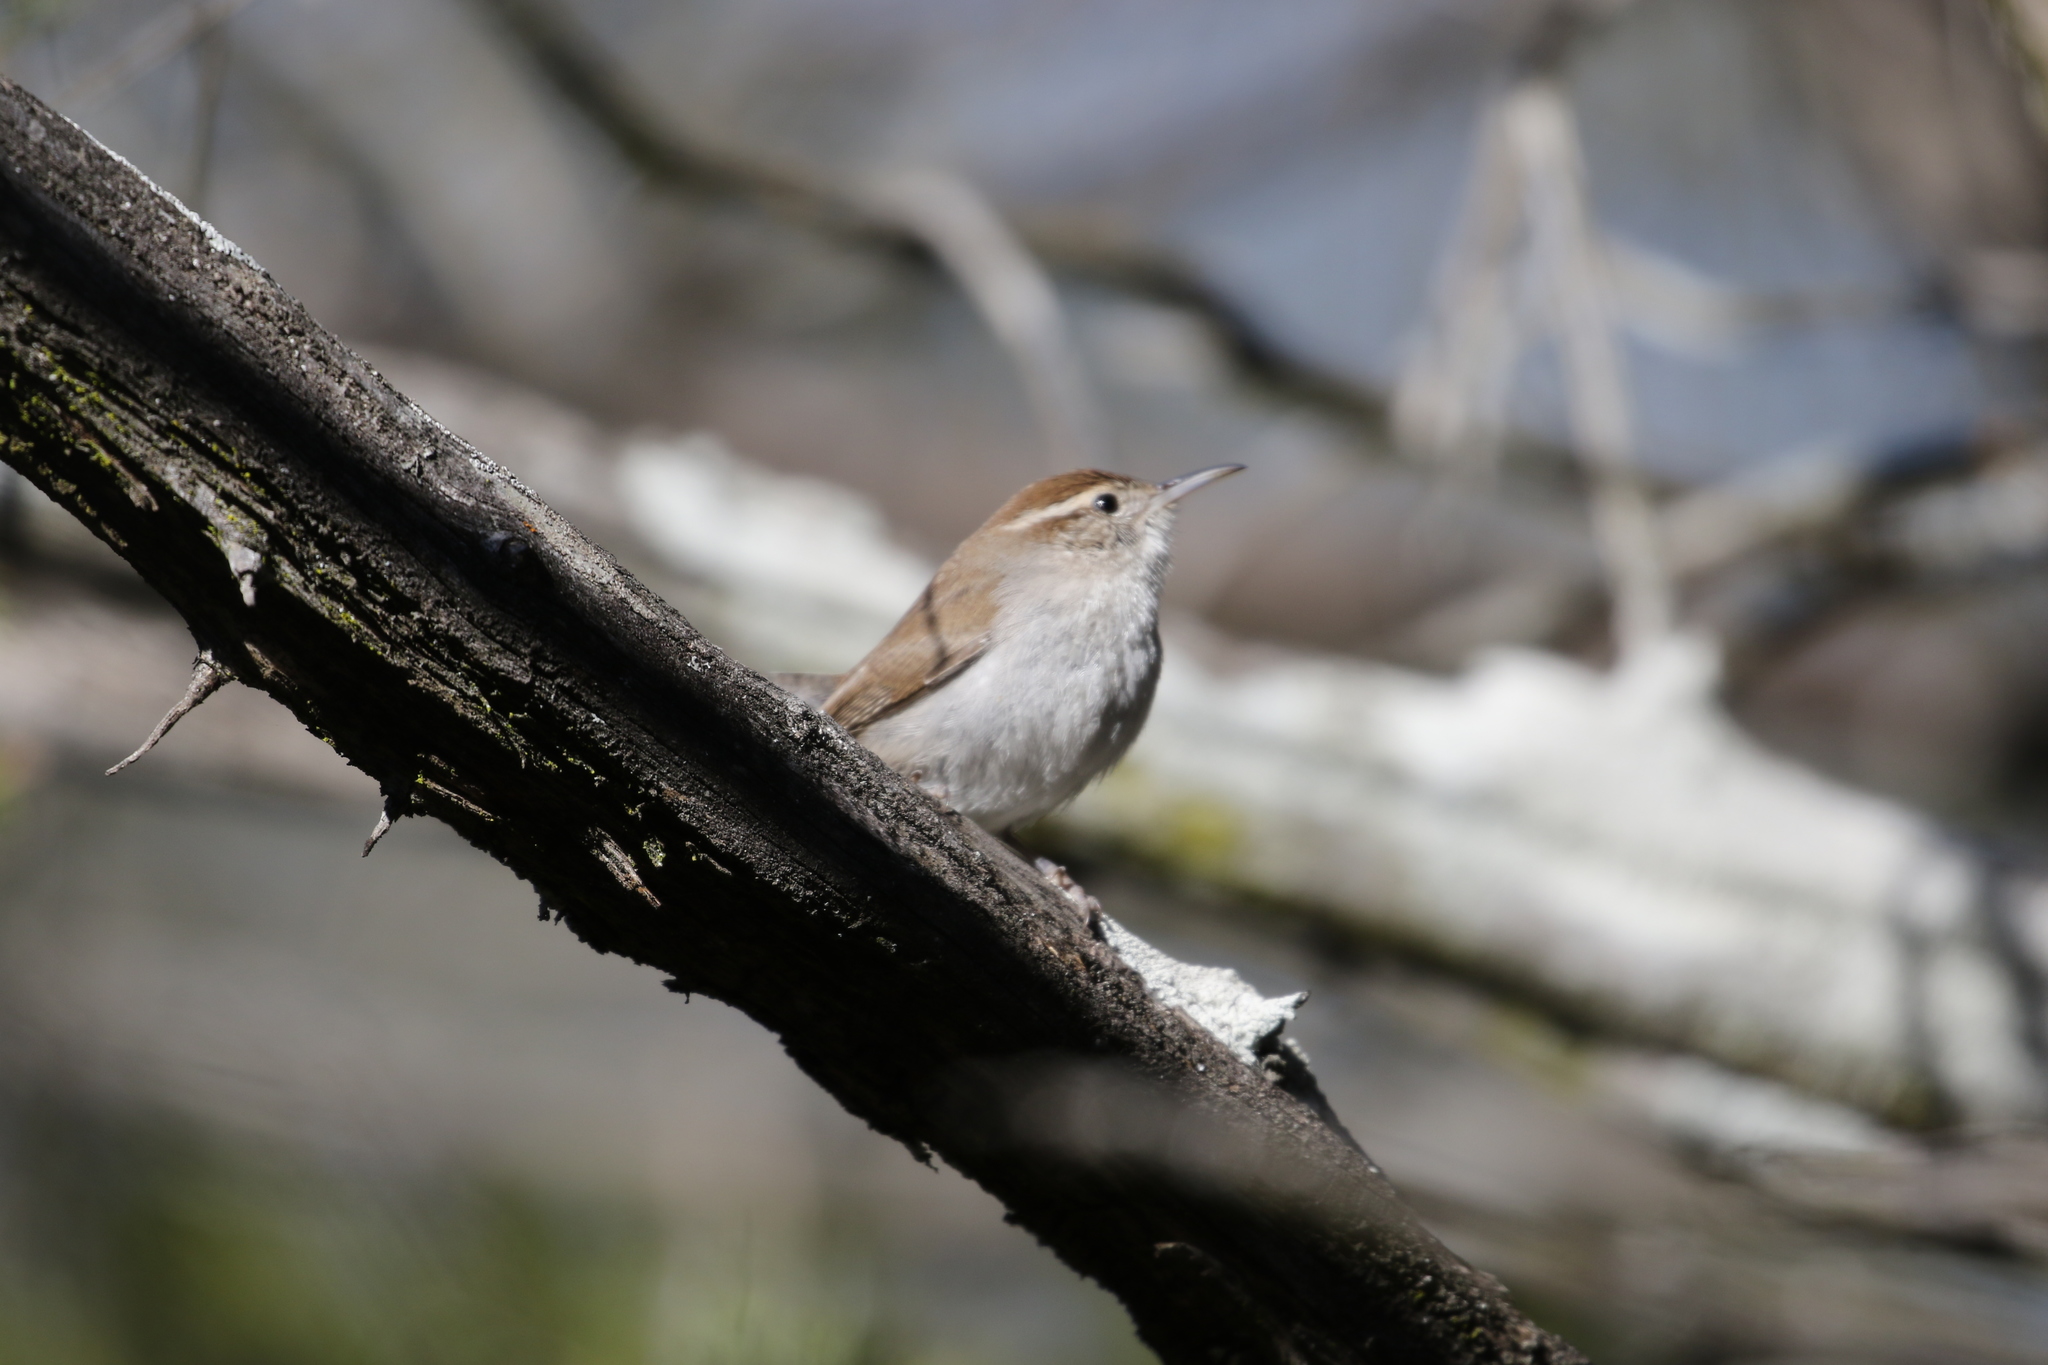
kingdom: Animalia
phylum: Chordata
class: Aves
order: Passeriformes
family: Troglodytidae
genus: Thryomanes
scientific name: Thryomanes bewickii
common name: Bewick's wren
